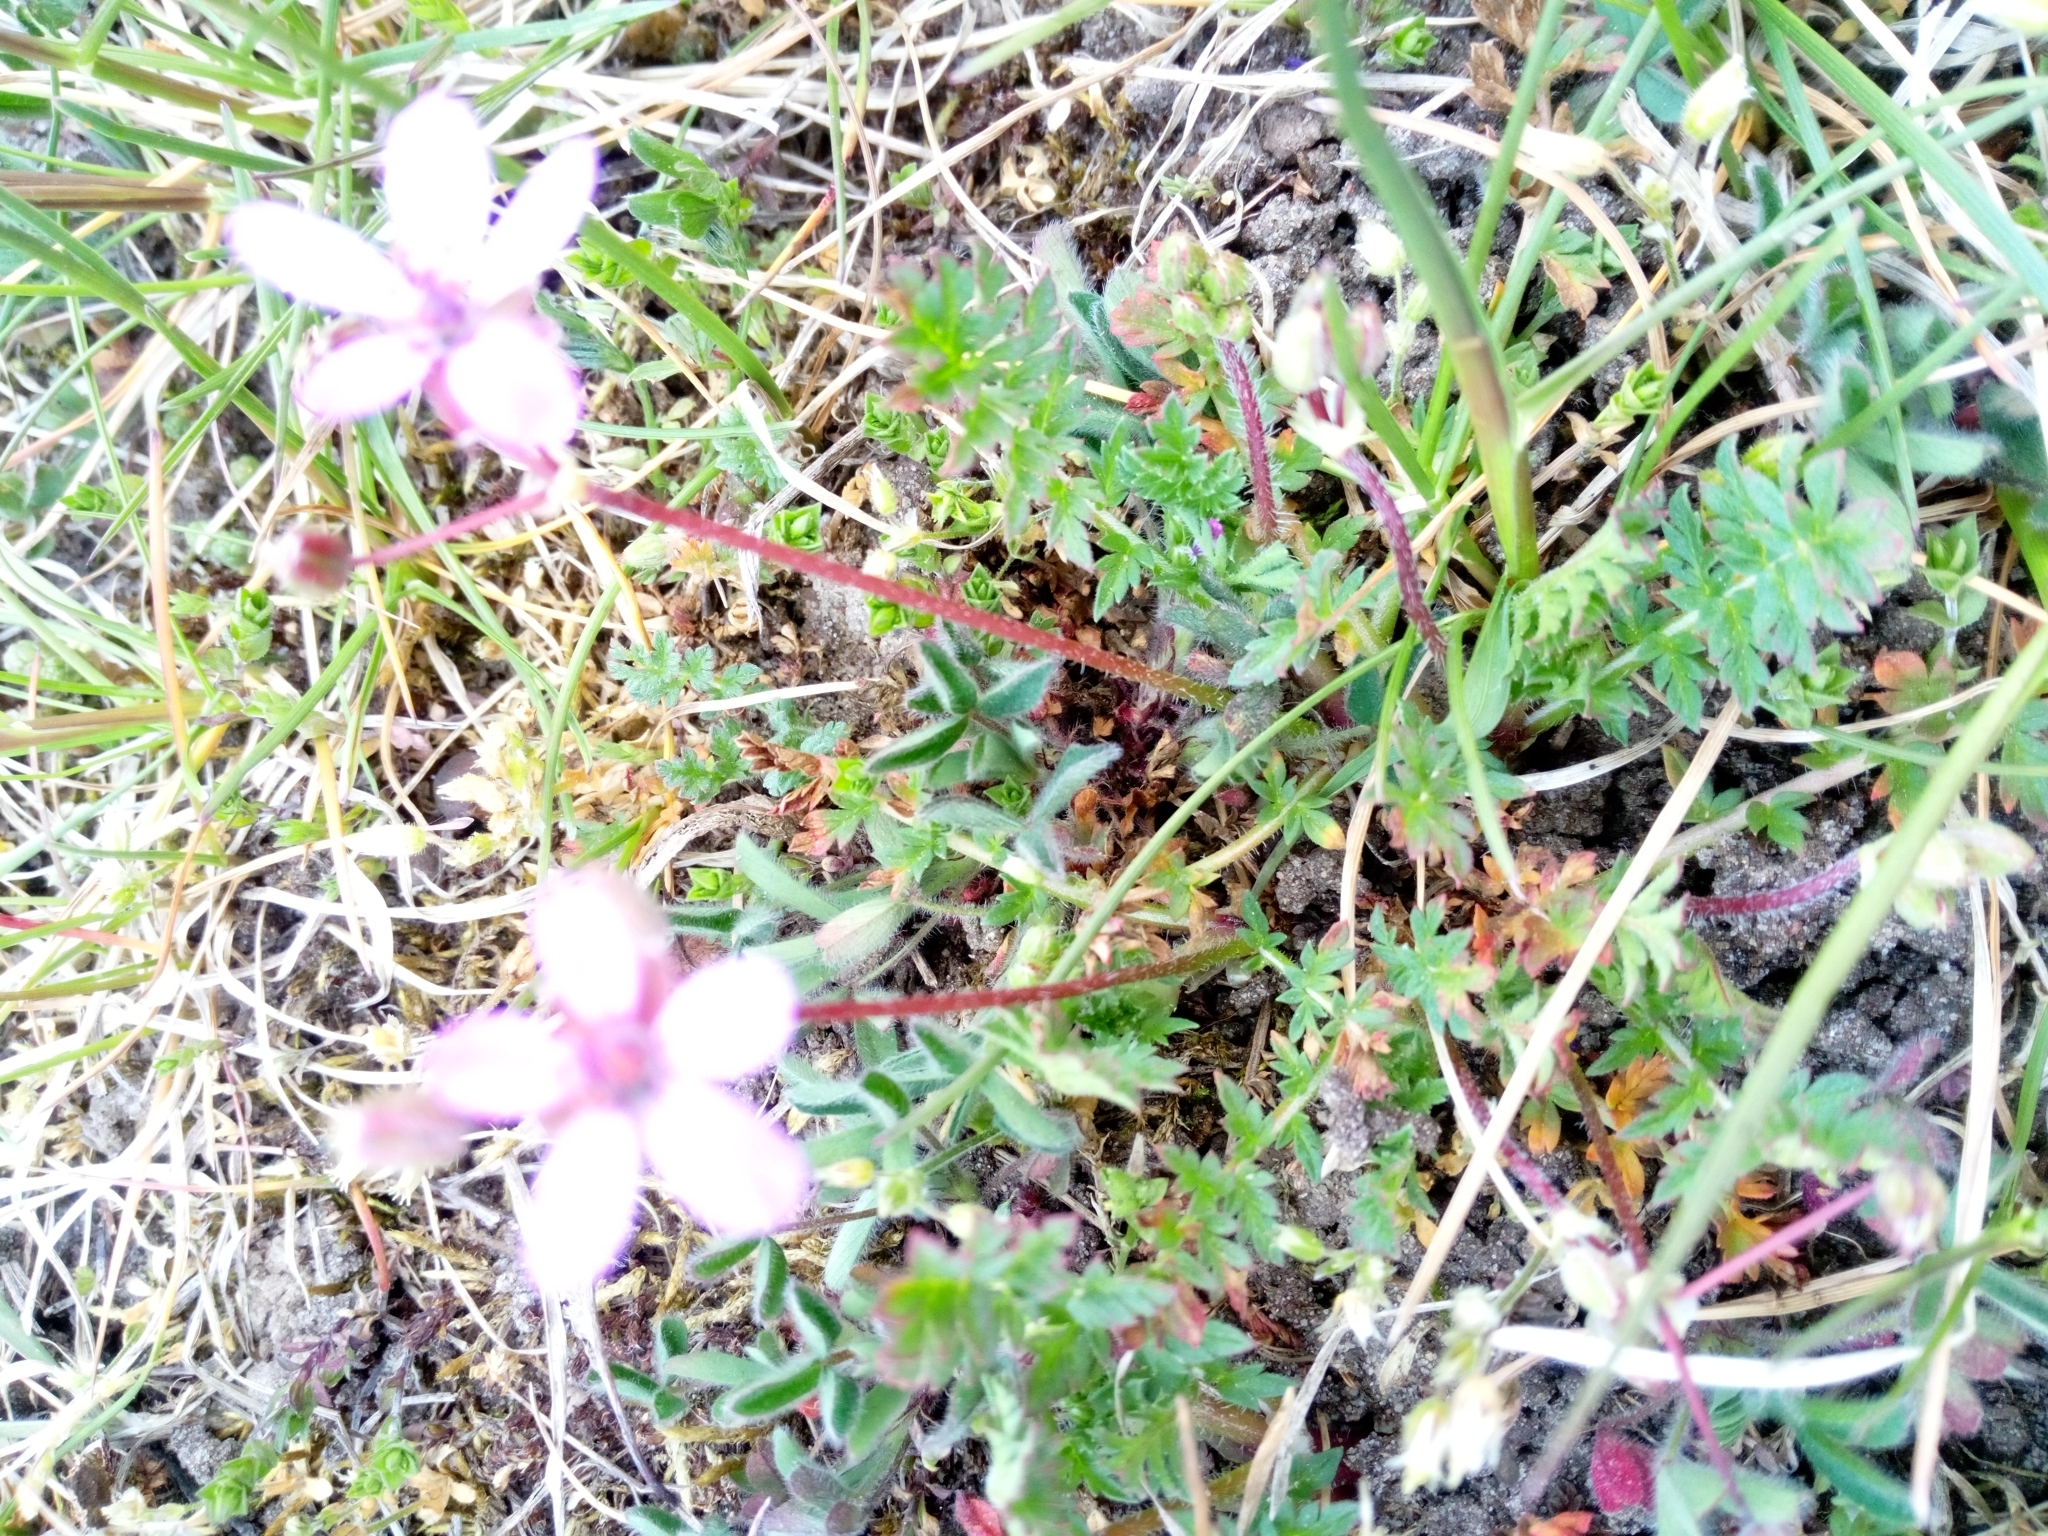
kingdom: Plantae
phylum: Tracheophyta
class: Magnoliopsida
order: Geraniales
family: Geraniaceae
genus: Erodium
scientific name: Erodium cicutarium
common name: Common stork's-bill
